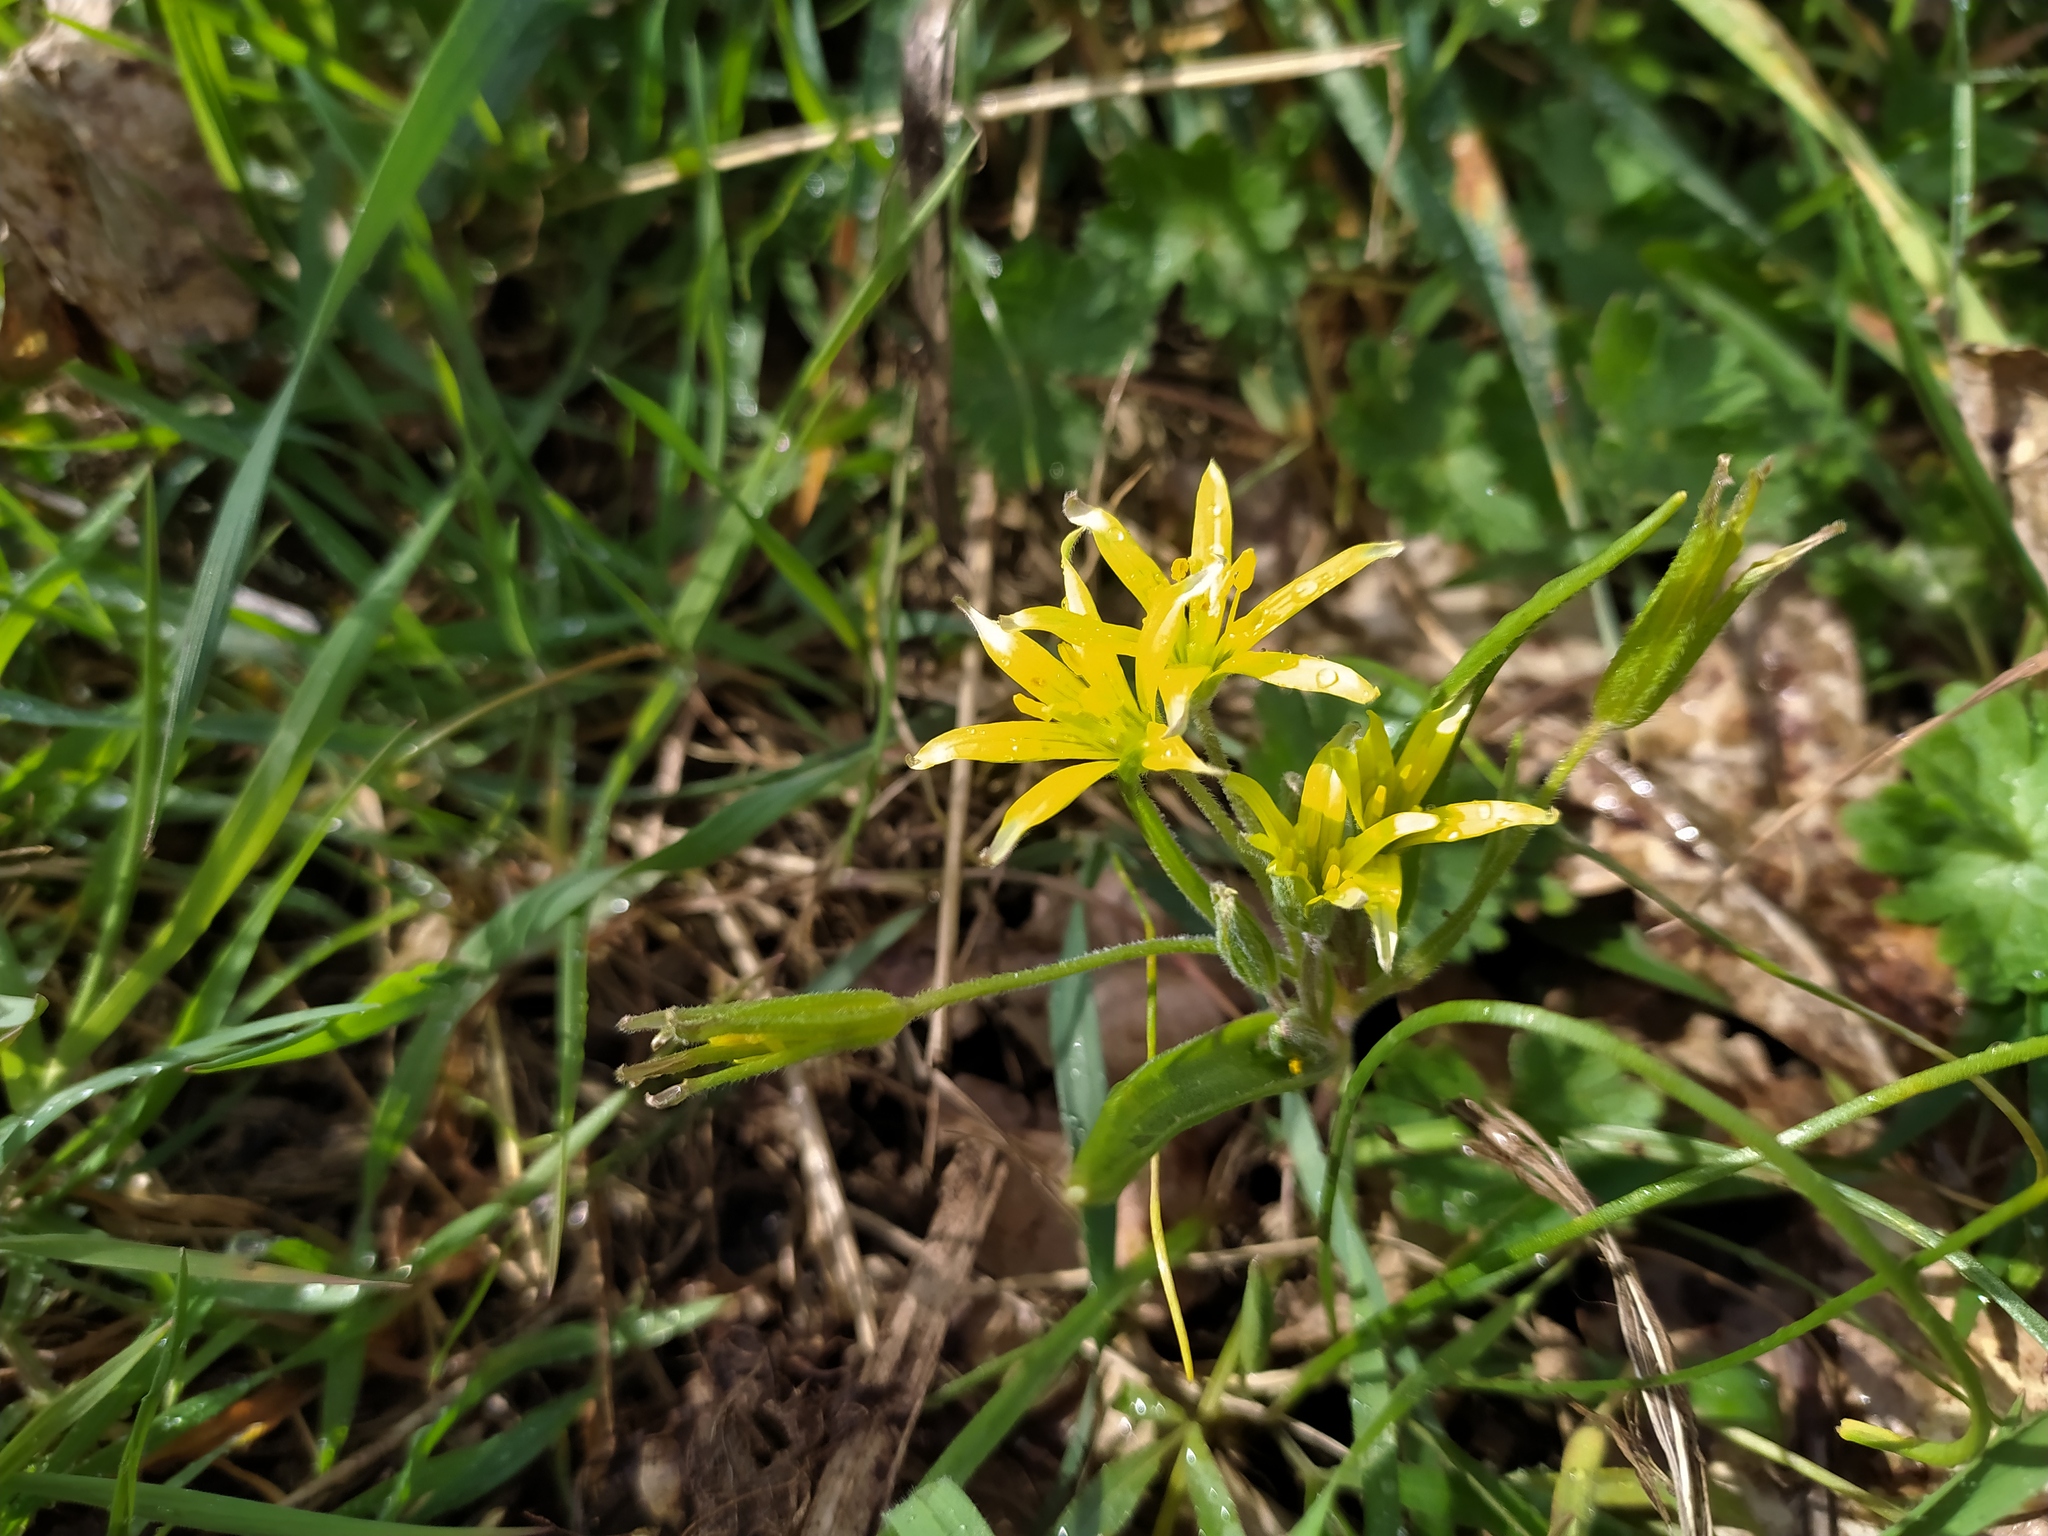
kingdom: Plantae
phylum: Tracheophyta
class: Liliopsida
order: Liliales
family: Liliaceae
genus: Gagea
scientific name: Gagea villosa
